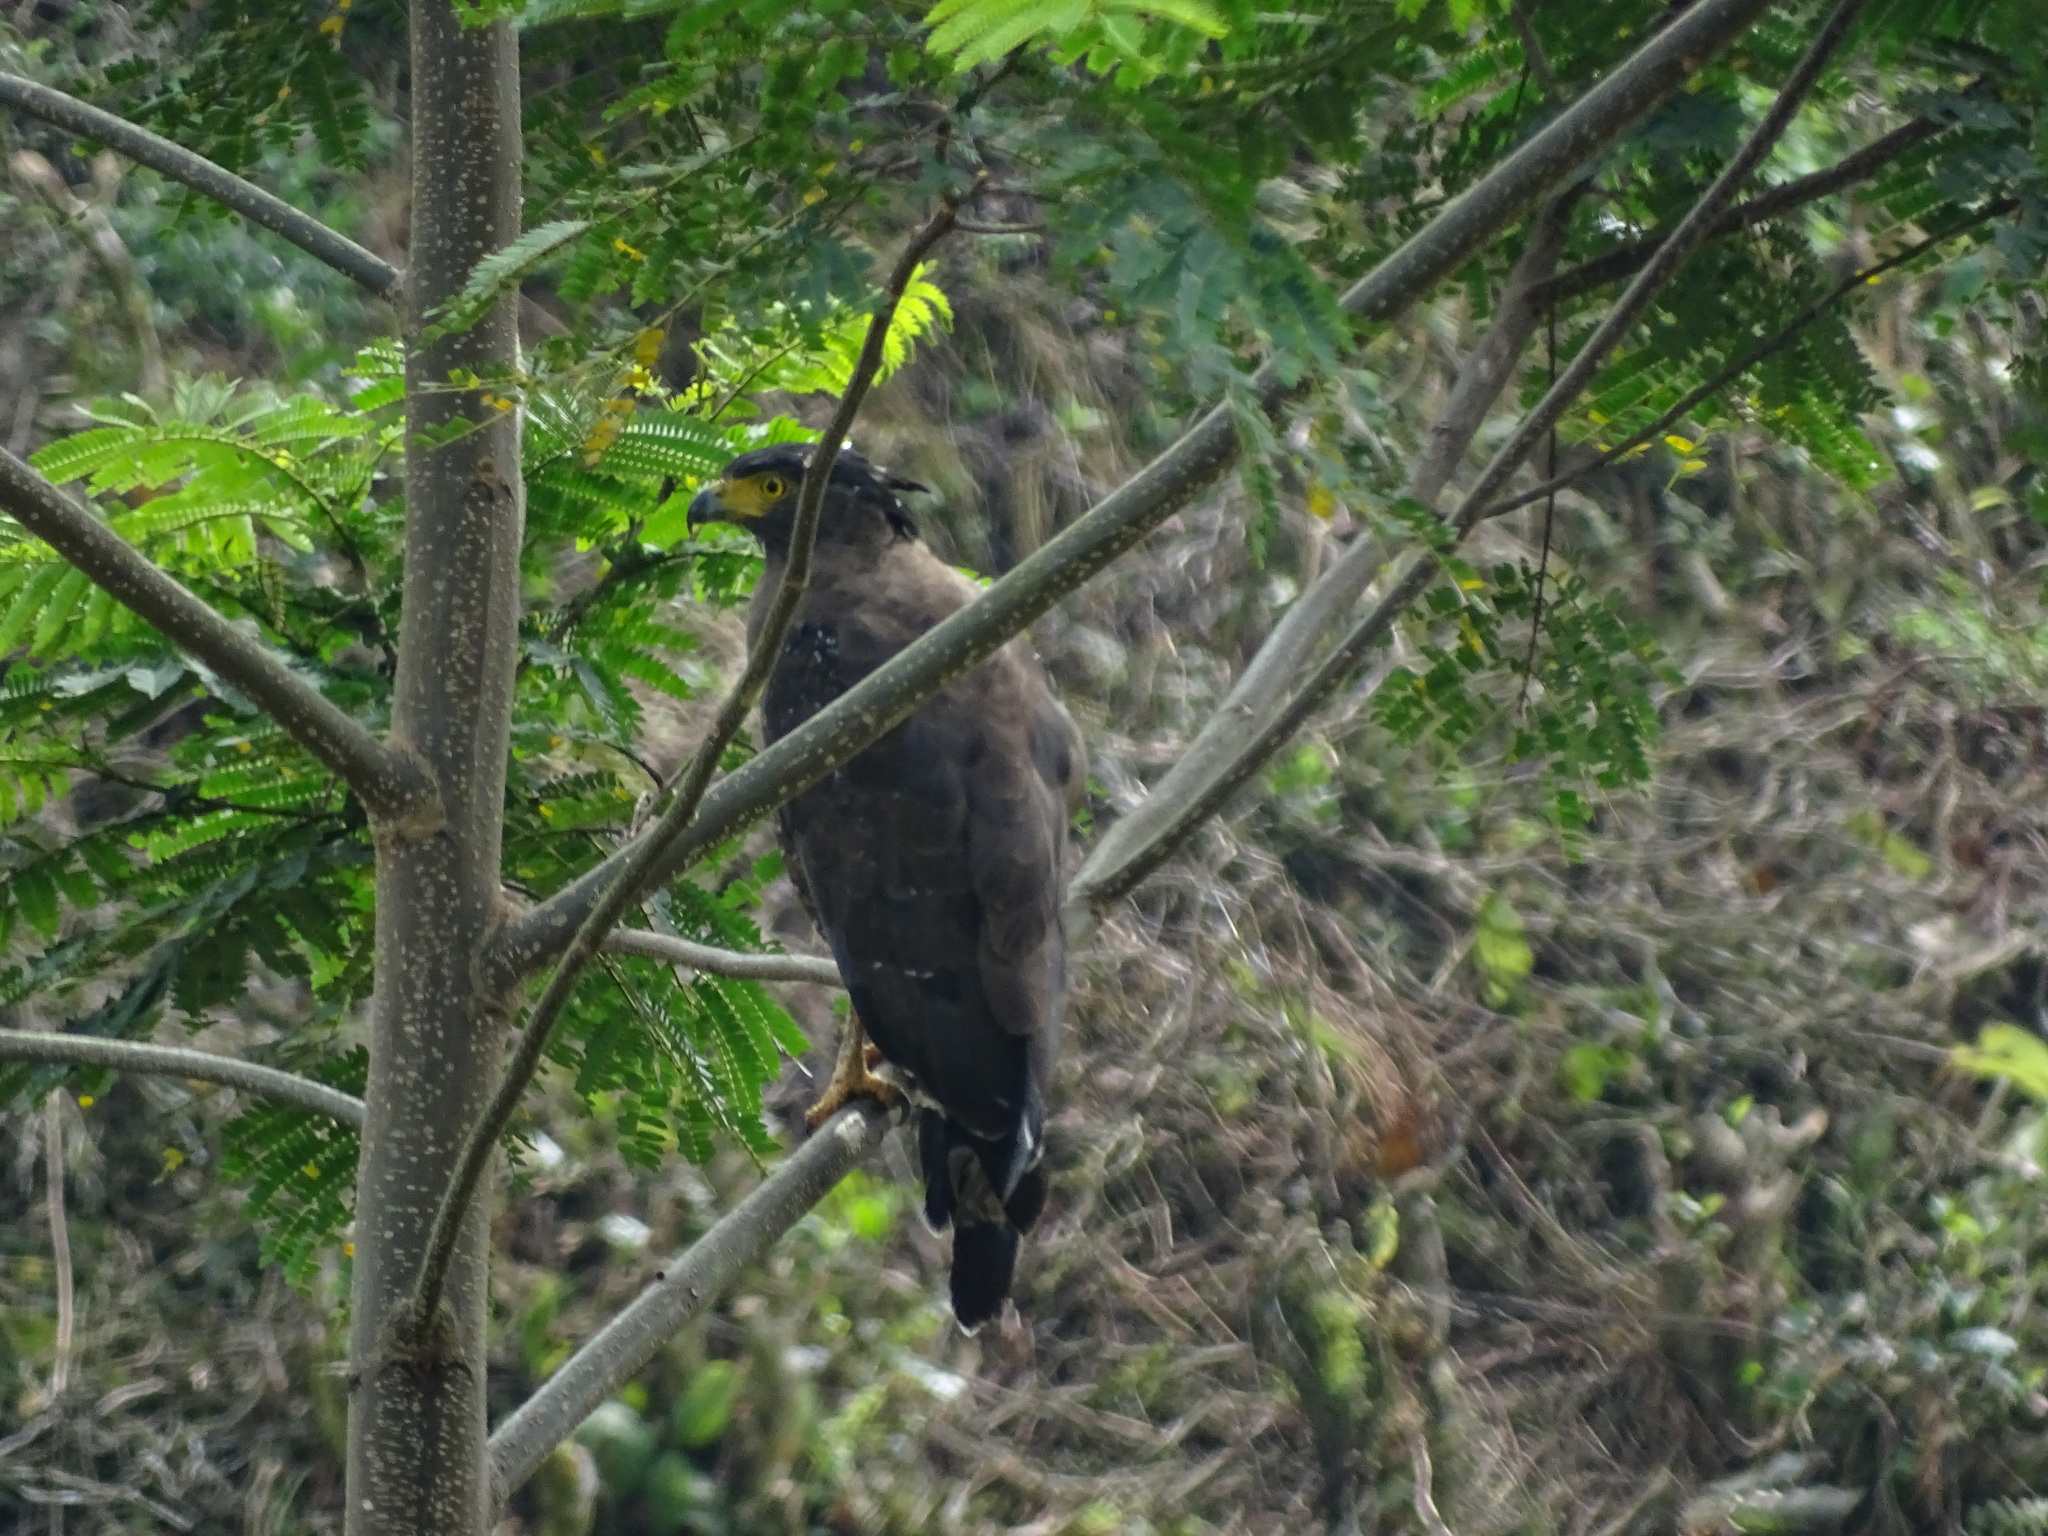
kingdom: Animalia
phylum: Chordata
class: Aves
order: Accipitriformes
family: Accipitridae
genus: Spilornis
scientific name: Spilornis cheela
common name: Crested serpent eagle
